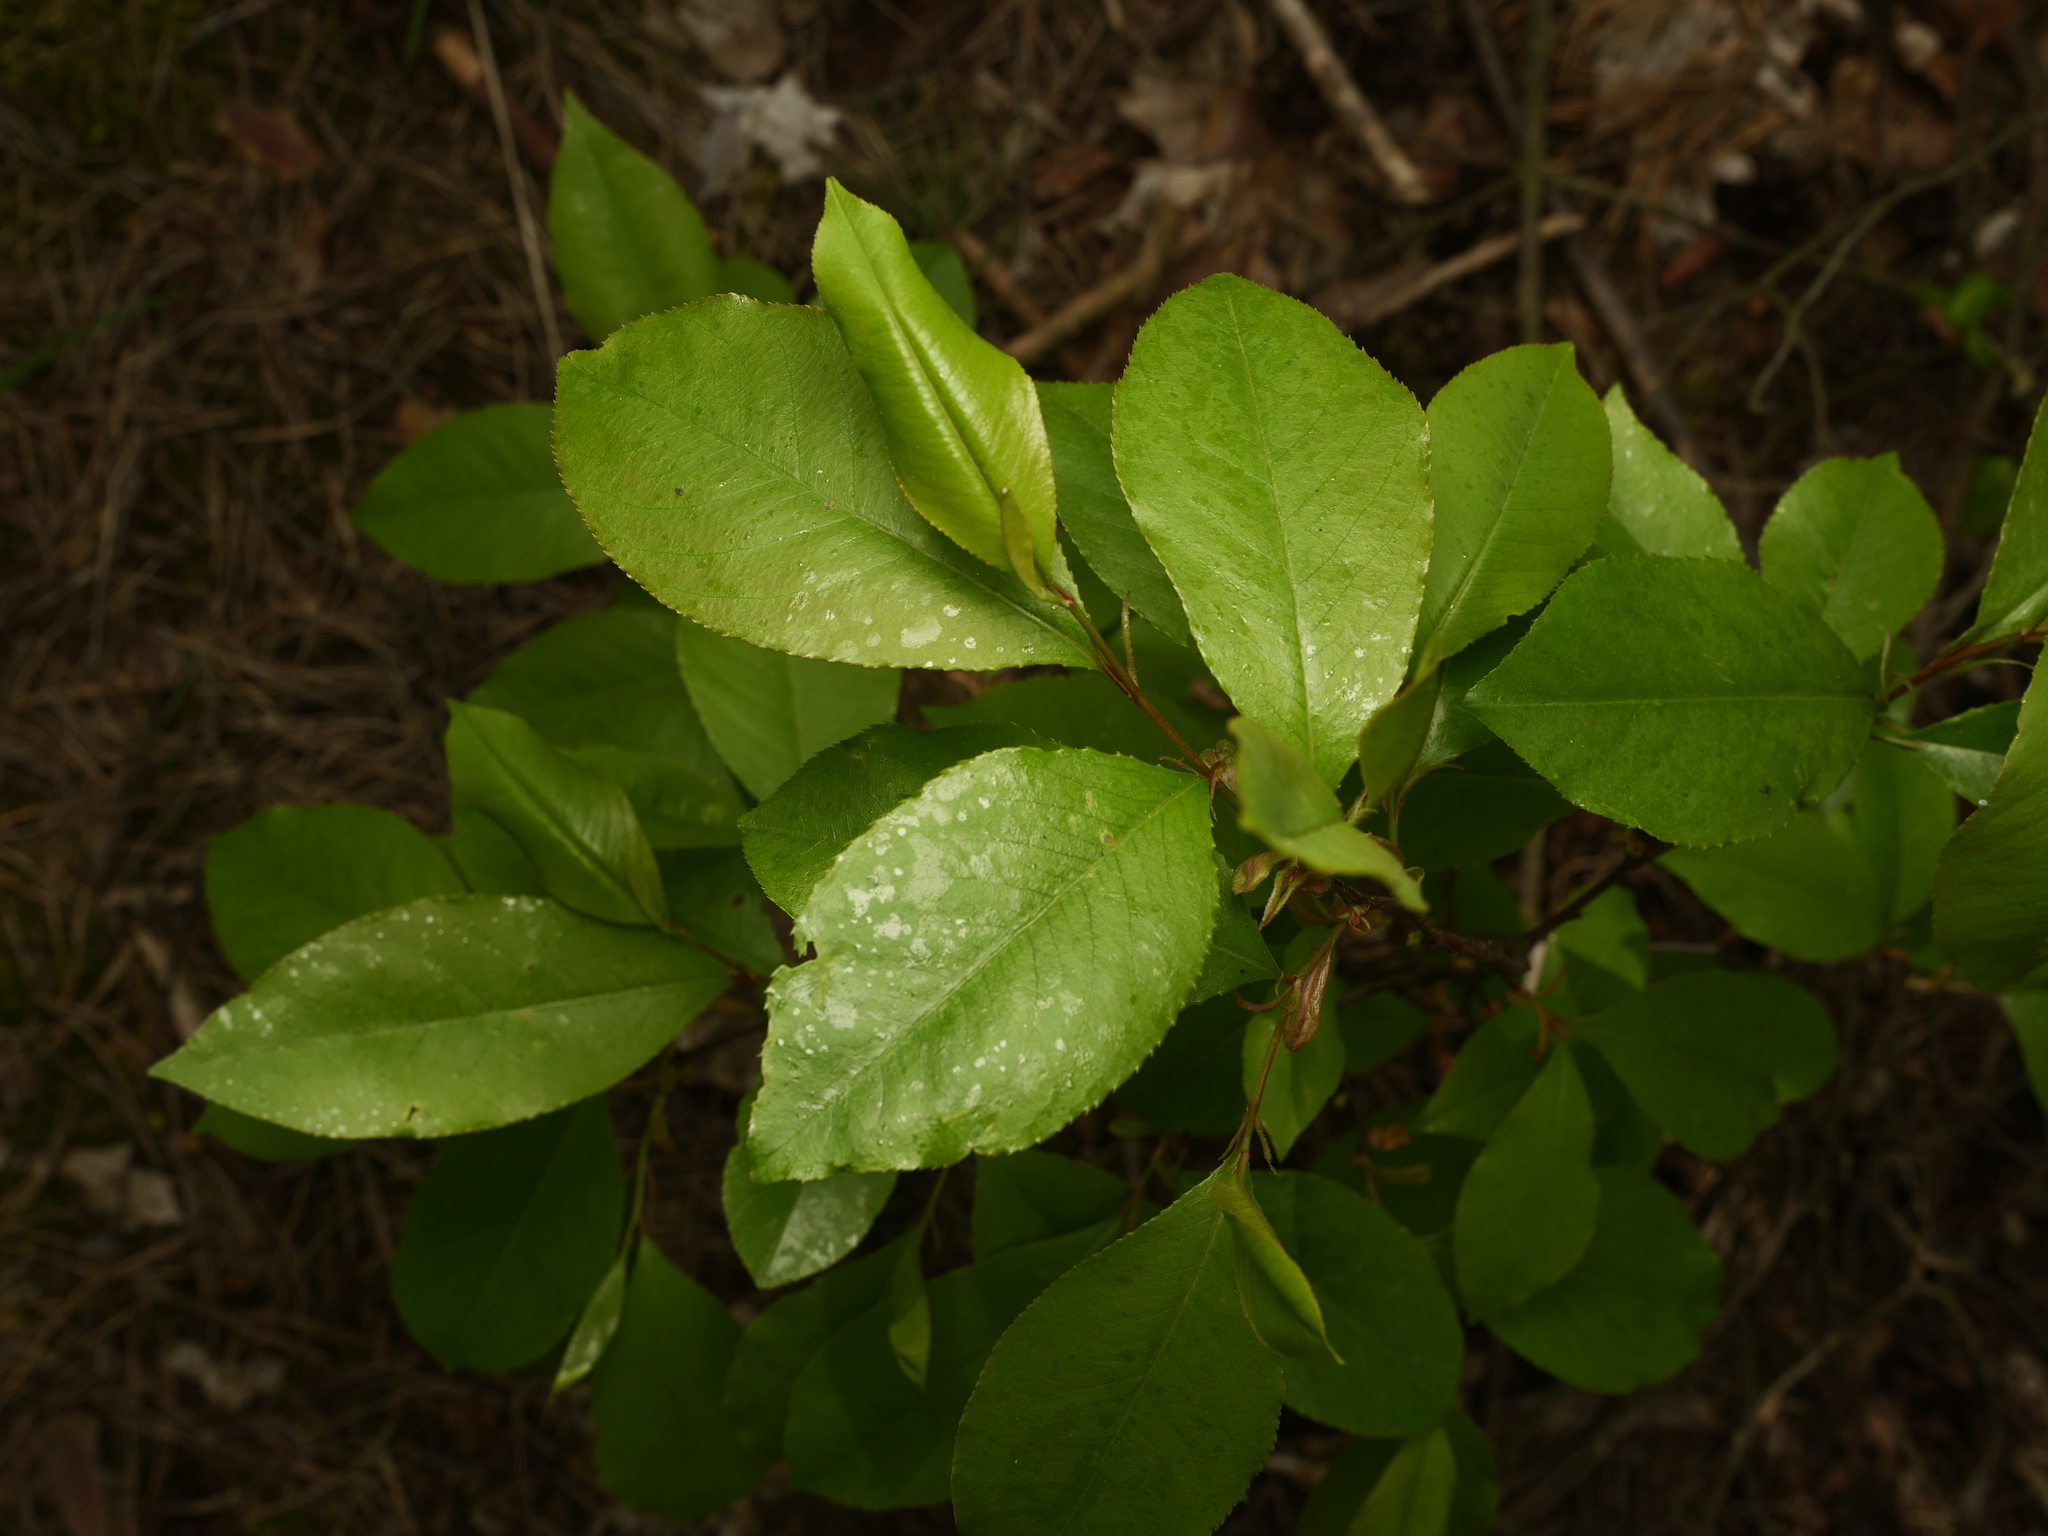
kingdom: Plantae
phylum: Tracheophyta
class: Magnoliopsida
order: Rosales
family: Rosaceae
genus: Prunus
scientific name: Prunus serotina
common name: Black cherry
